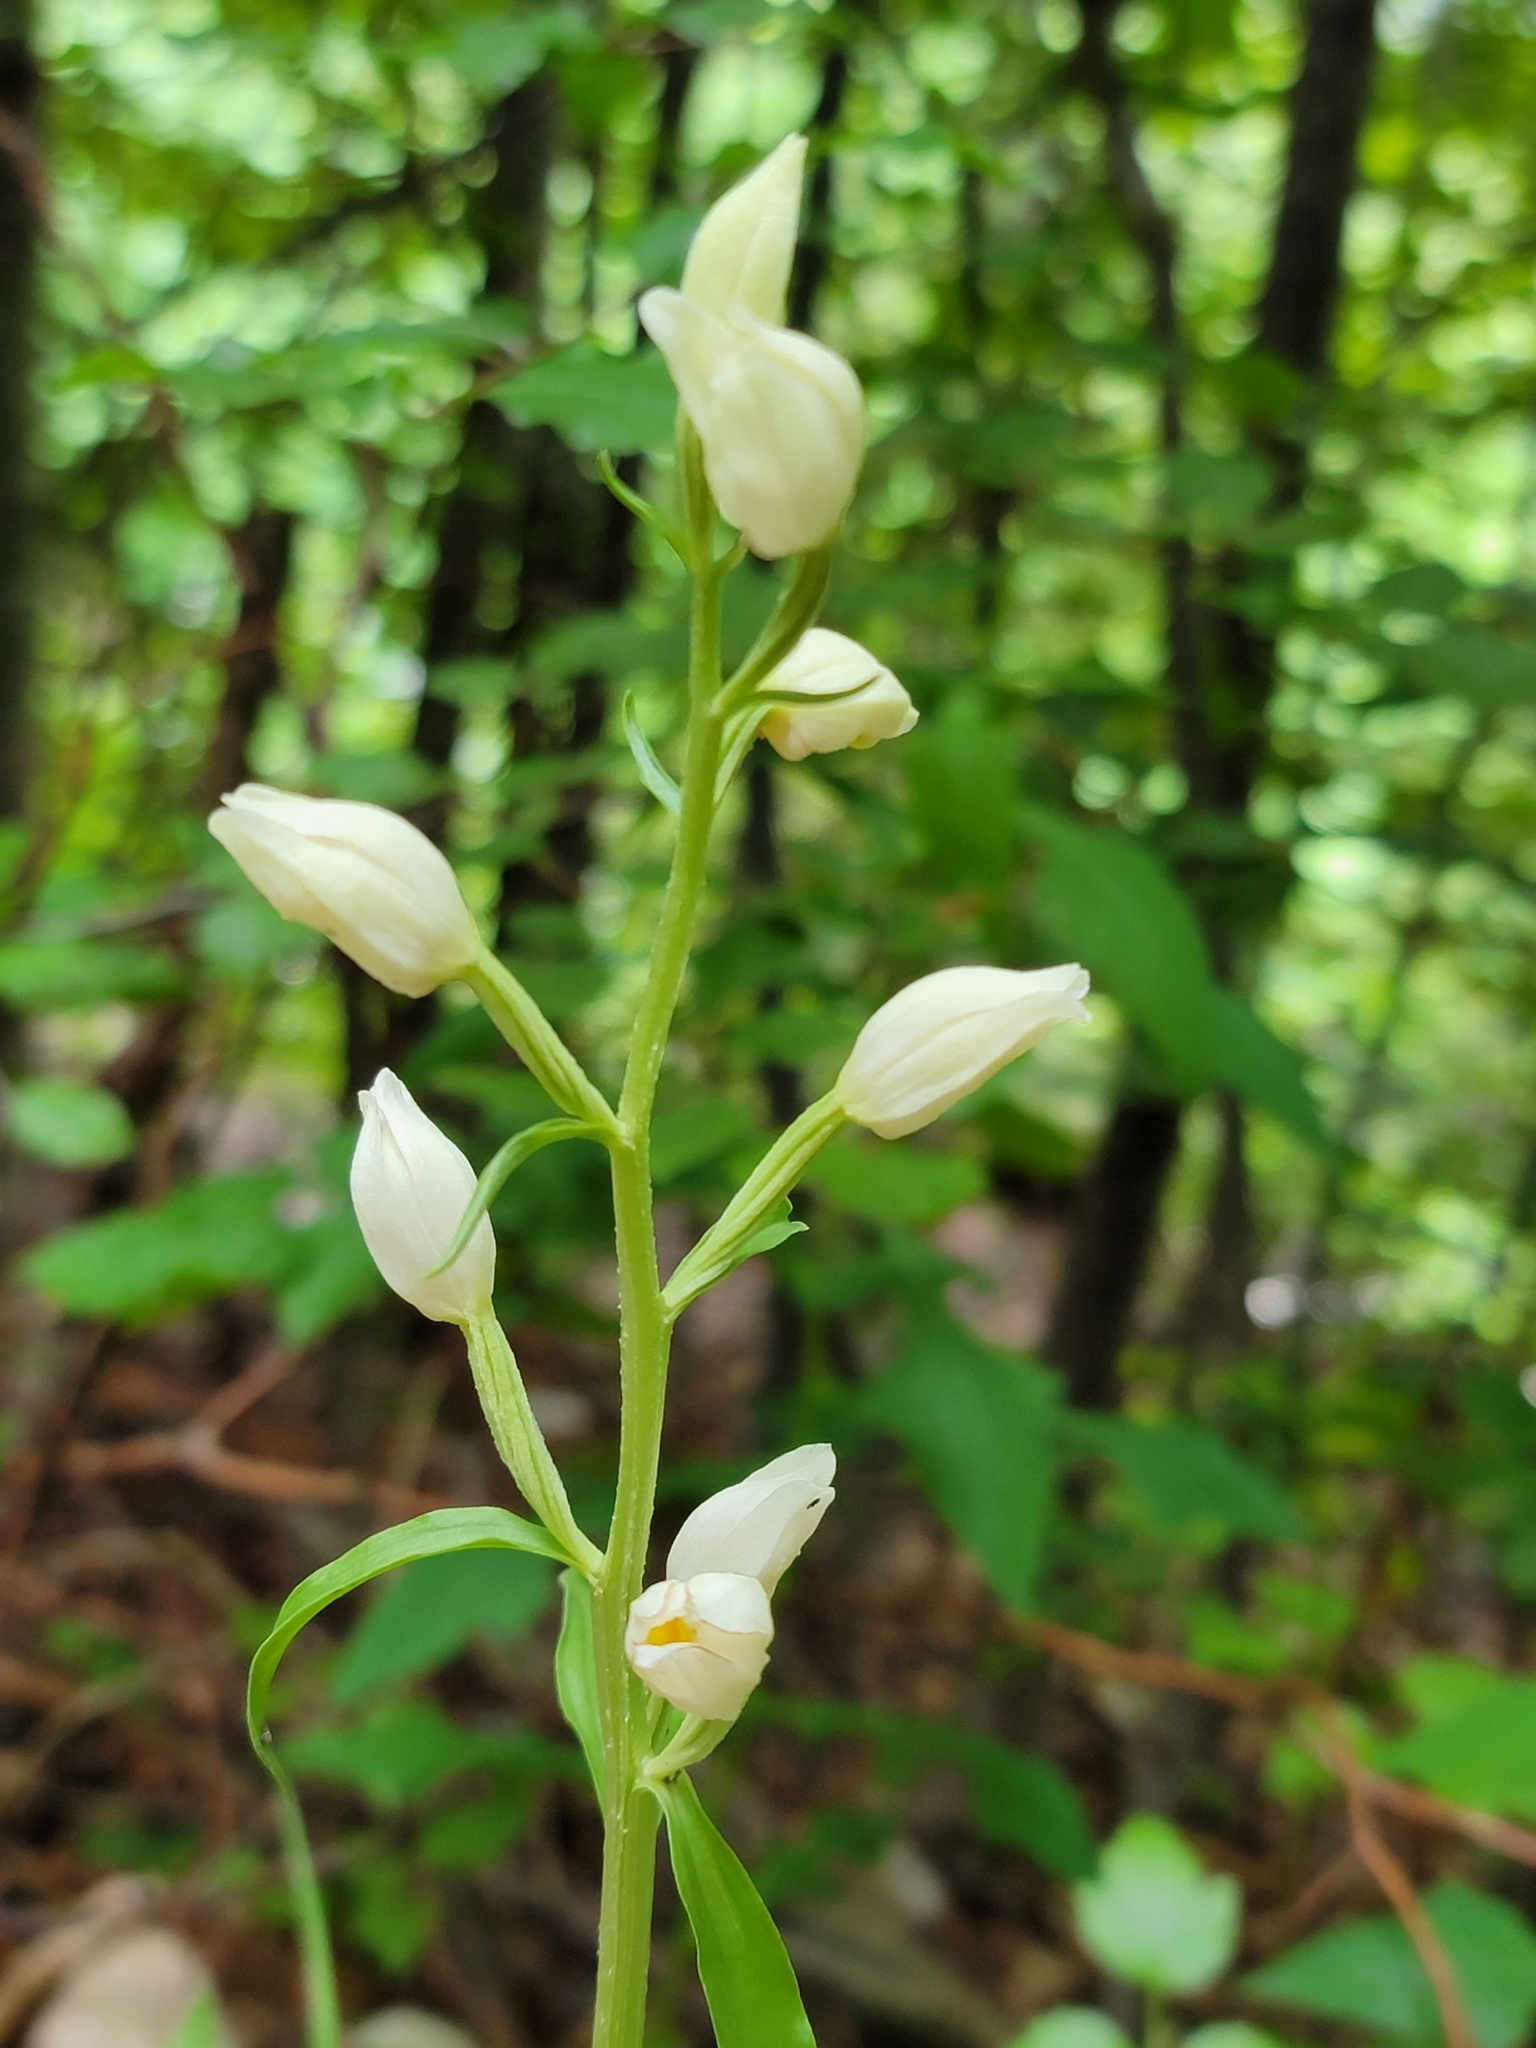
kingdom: Plantae
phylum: Tracheophyta
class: Liliopsida
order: Asparagales
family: Orchidaceae
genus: Cephalanthera
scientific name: Cephalanthera damasonium
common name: White helleborine
